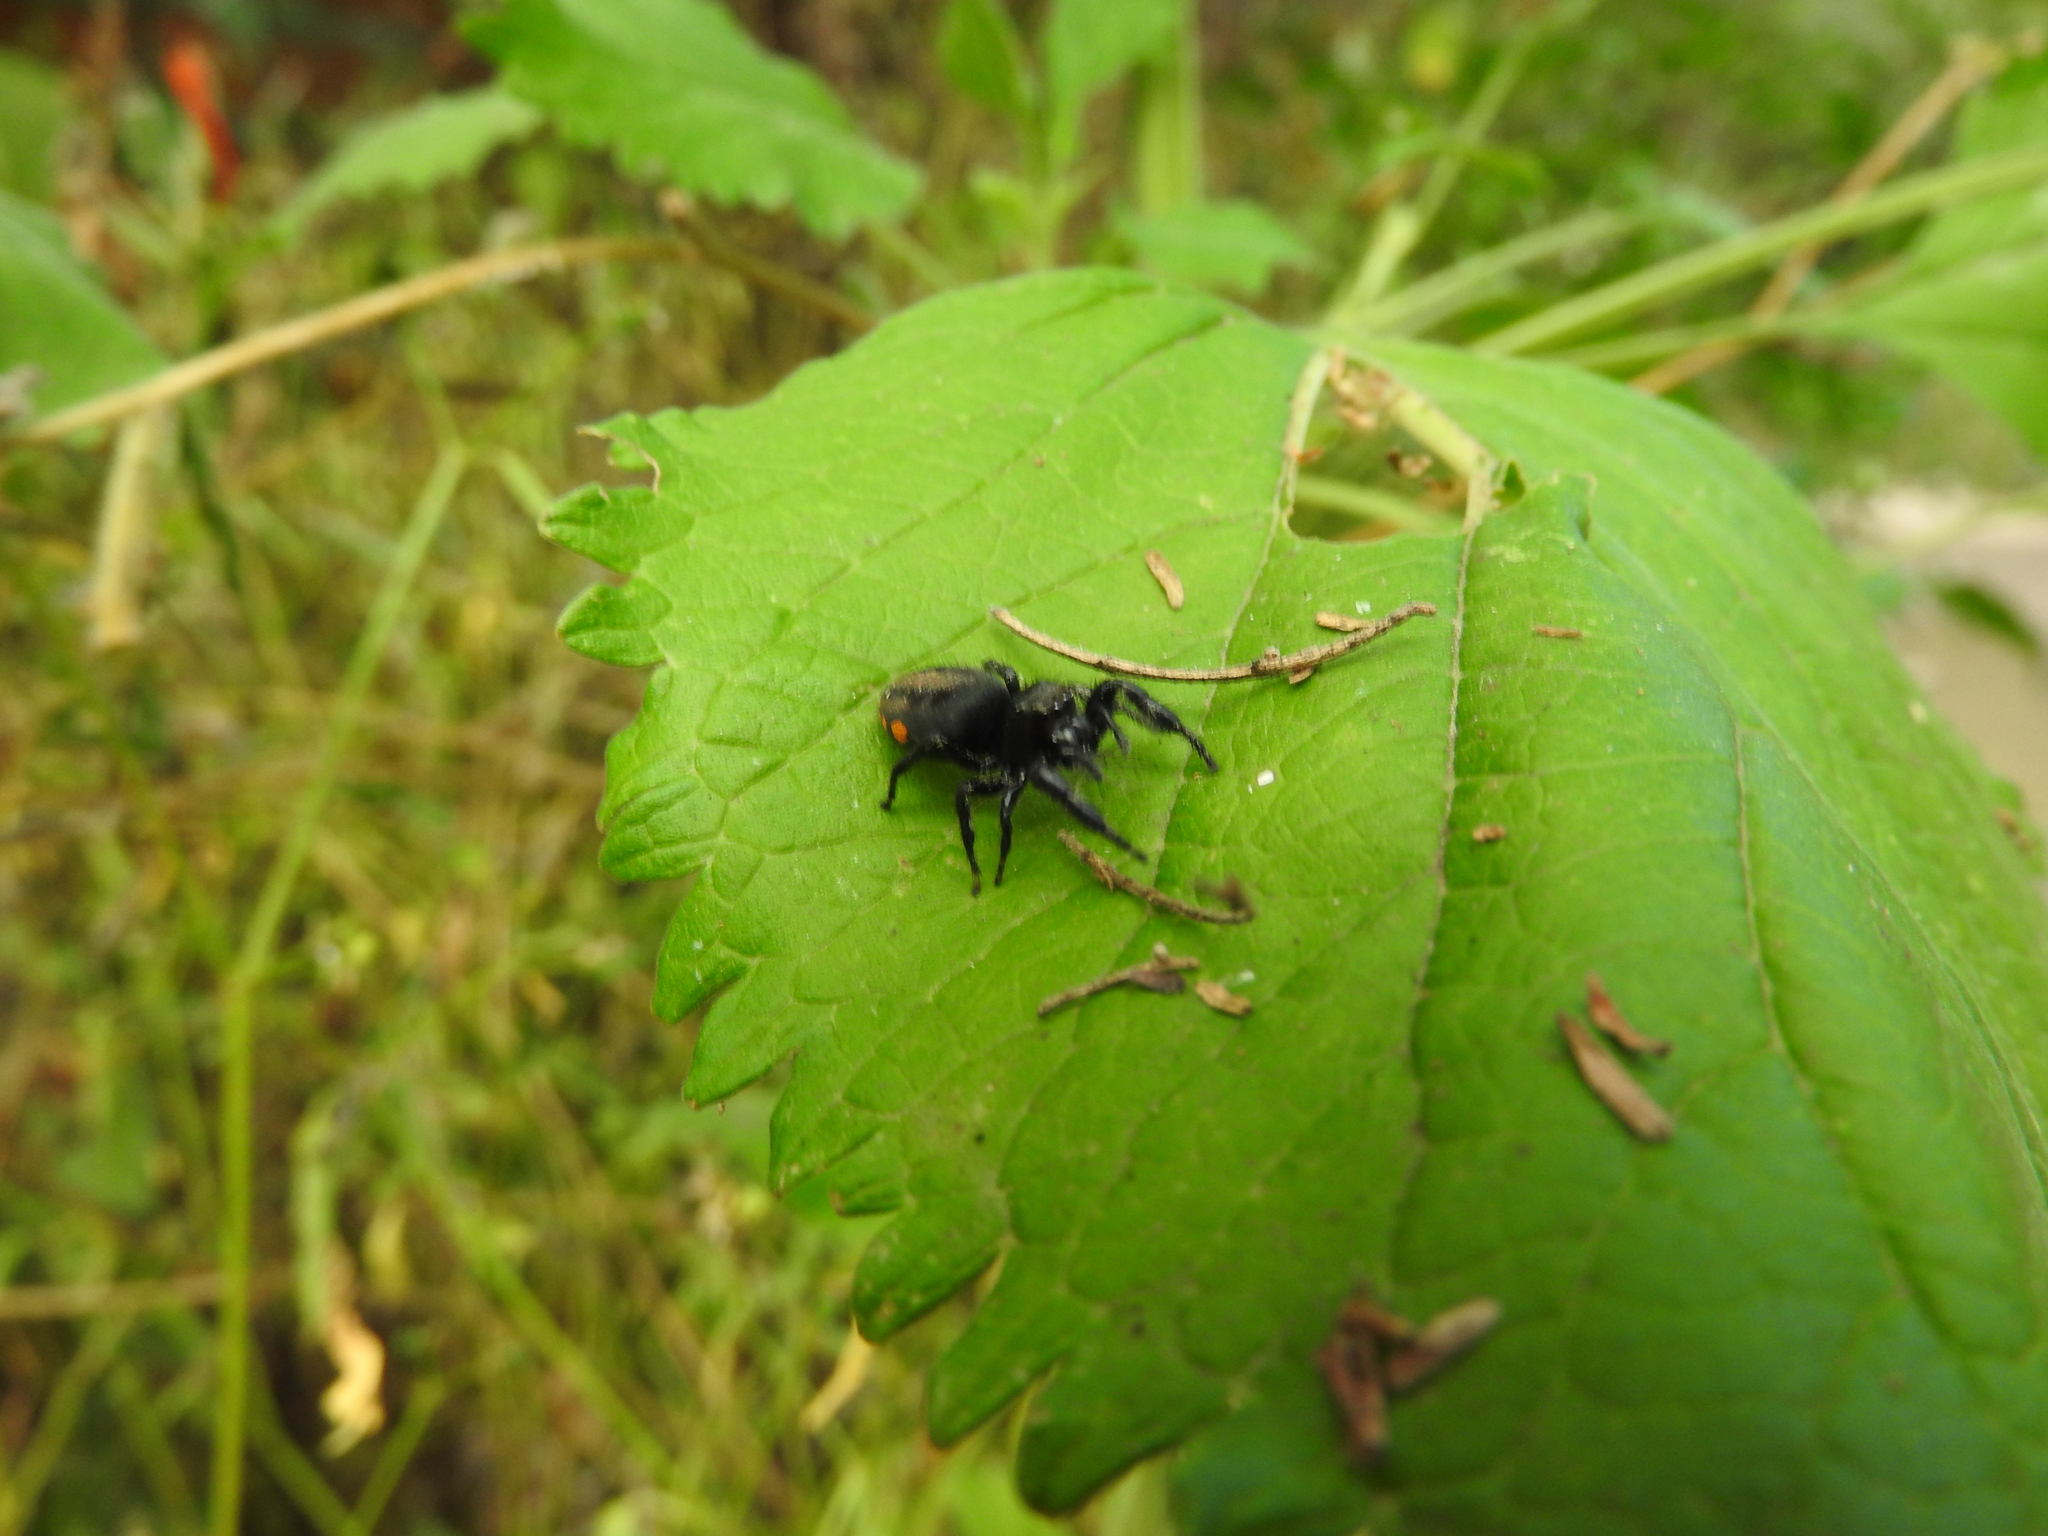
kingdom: Animalia
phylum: Arthropoda
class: Arachnida
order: Araneae
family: Salticidae
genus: Paraphidippus
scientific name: Paraphidippus aurantius
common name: Jumping spiders
